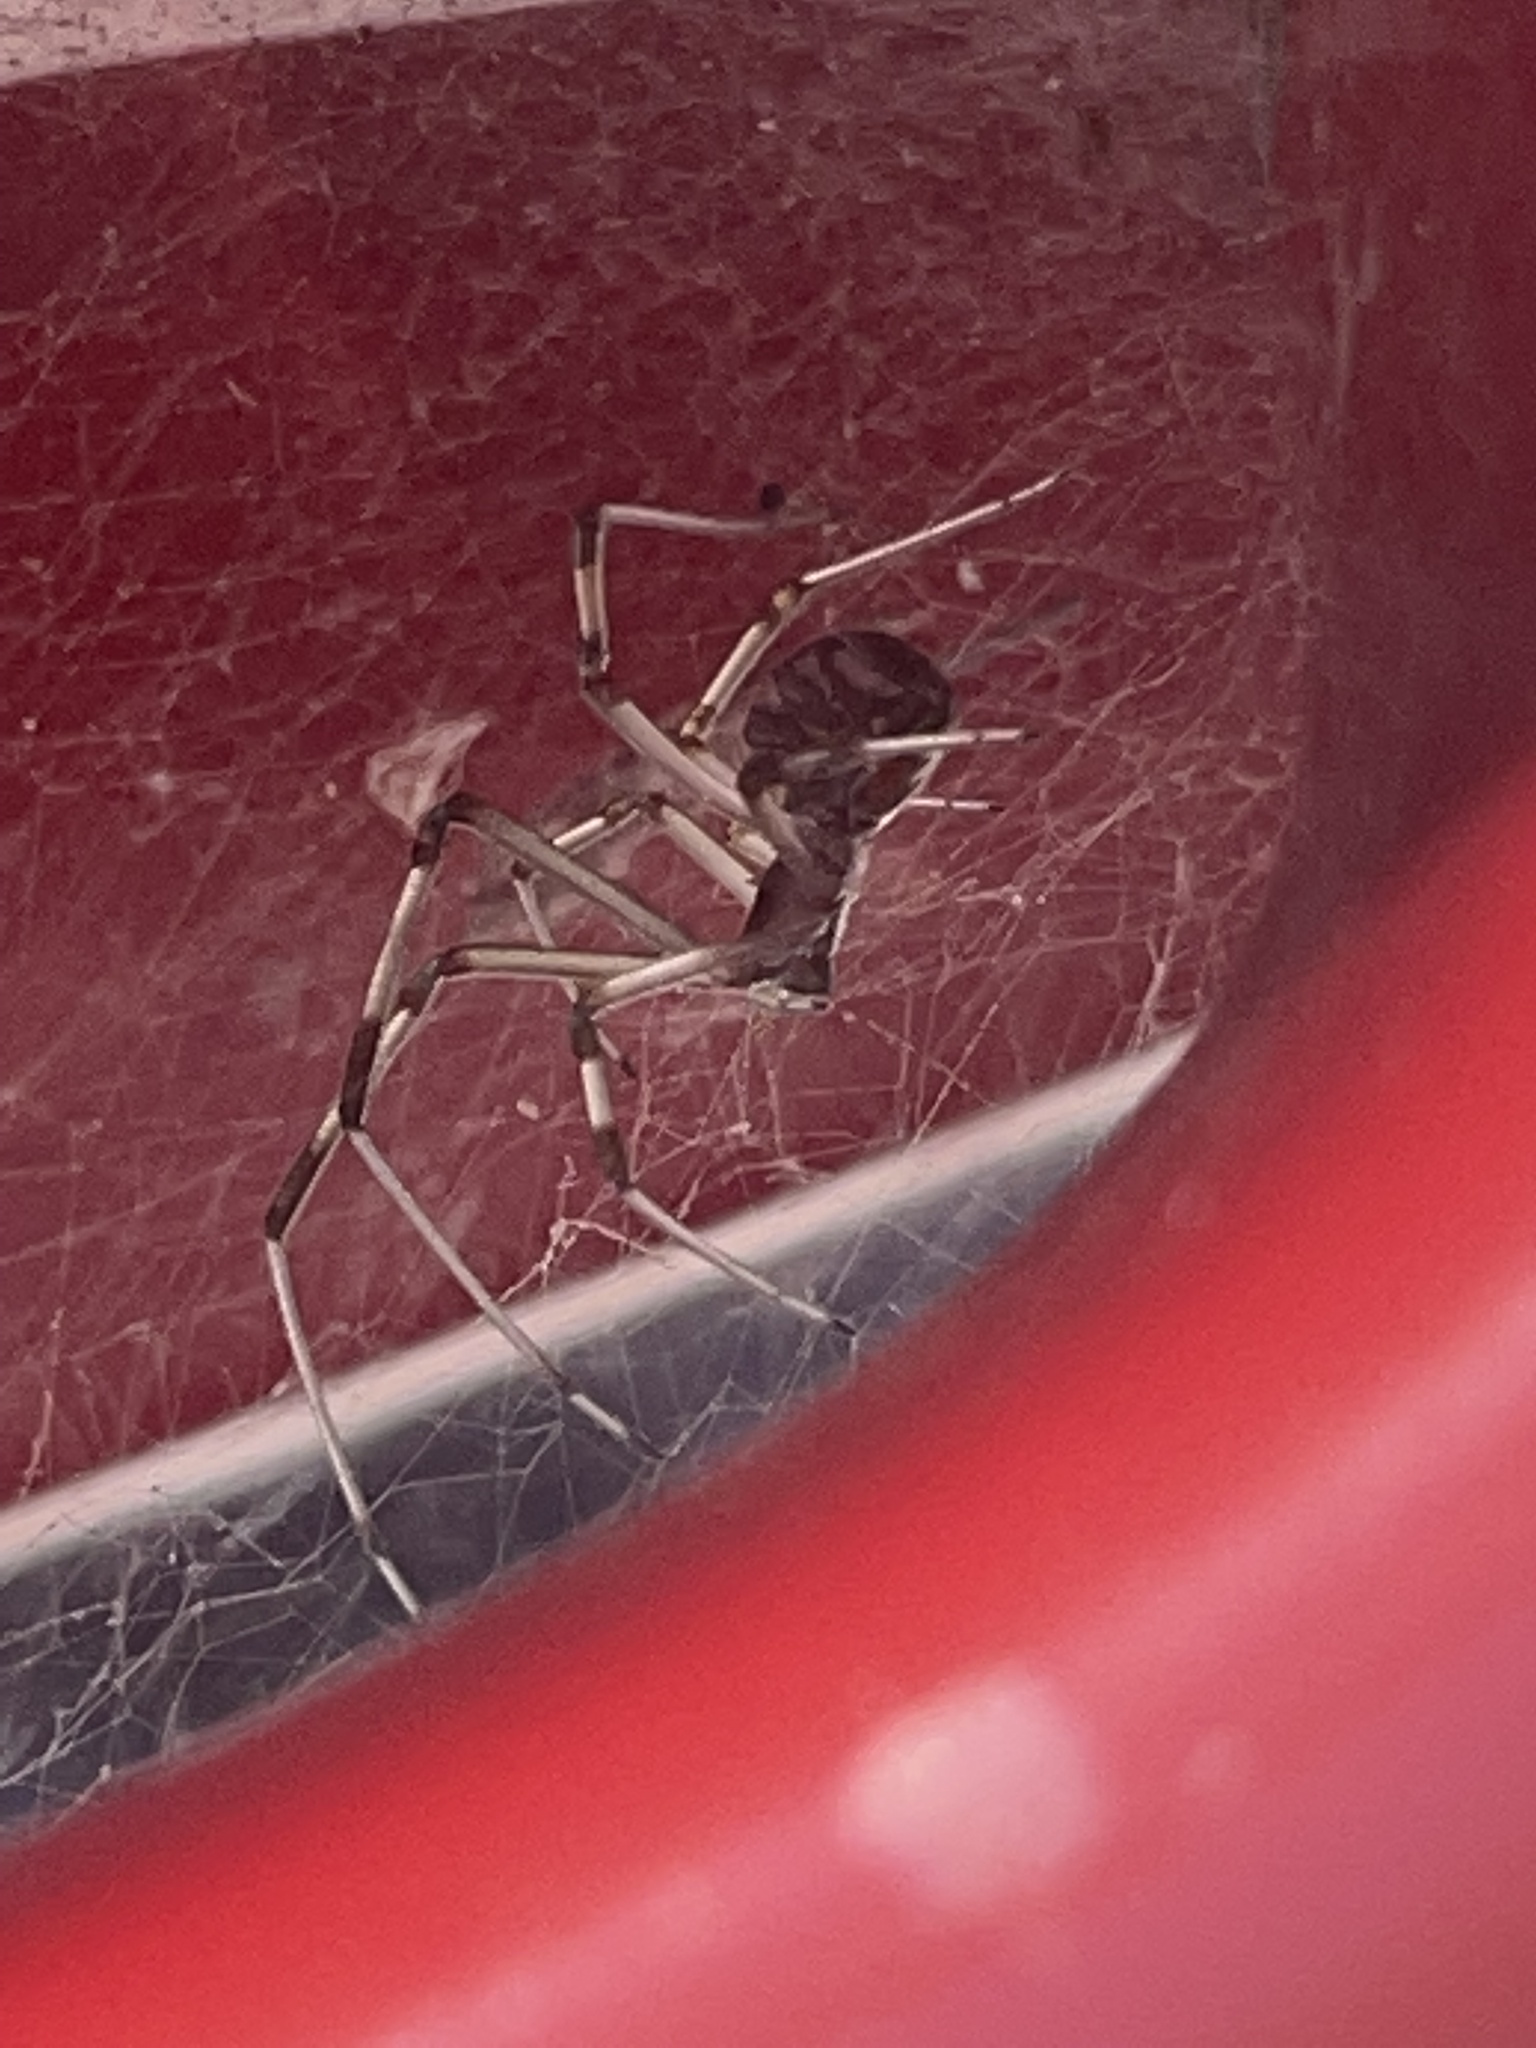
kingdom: Animalia
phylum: Arthropoda
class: Arachnida
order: Araneae
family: Theridiidae
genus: Latrodectus
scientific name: Latrodectus geometricus
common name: Brown widow spider
